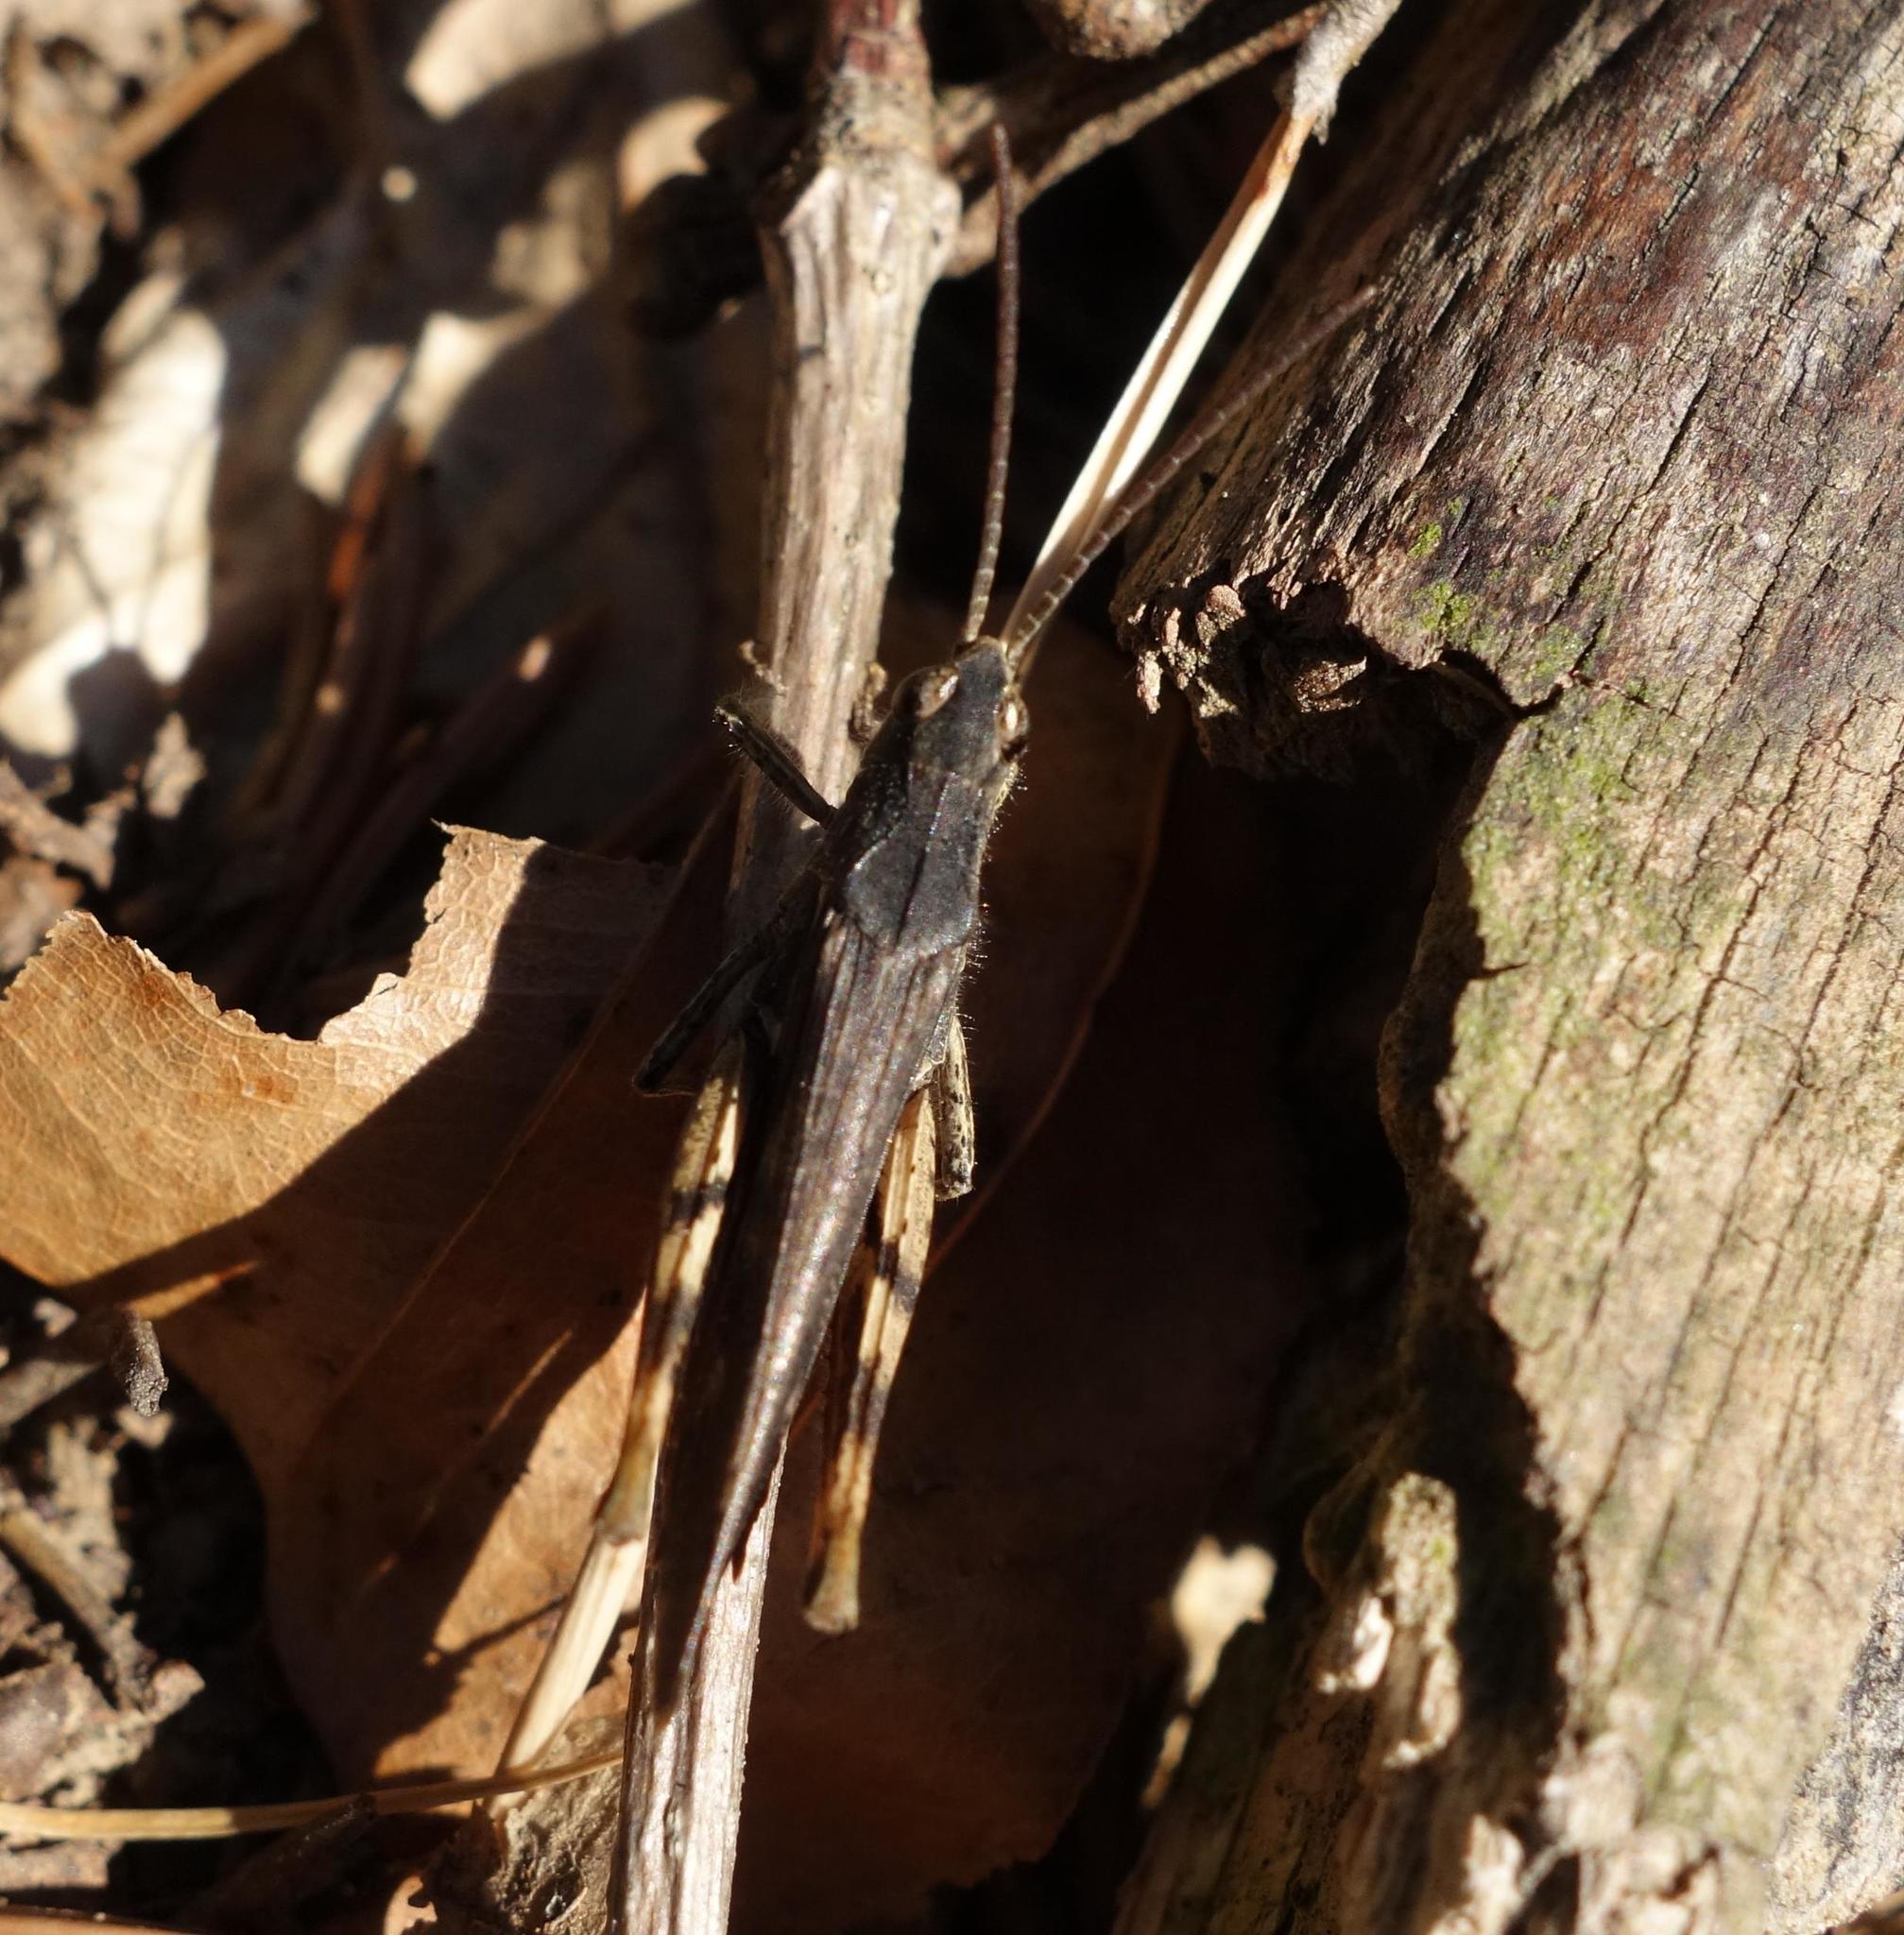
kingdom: Animalia
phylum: Arthropoda
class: Insecta
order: Orthoptera
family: Acrididae
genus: Chorthippus
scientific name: Chorthippus brunneus
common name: Field grasshopper
